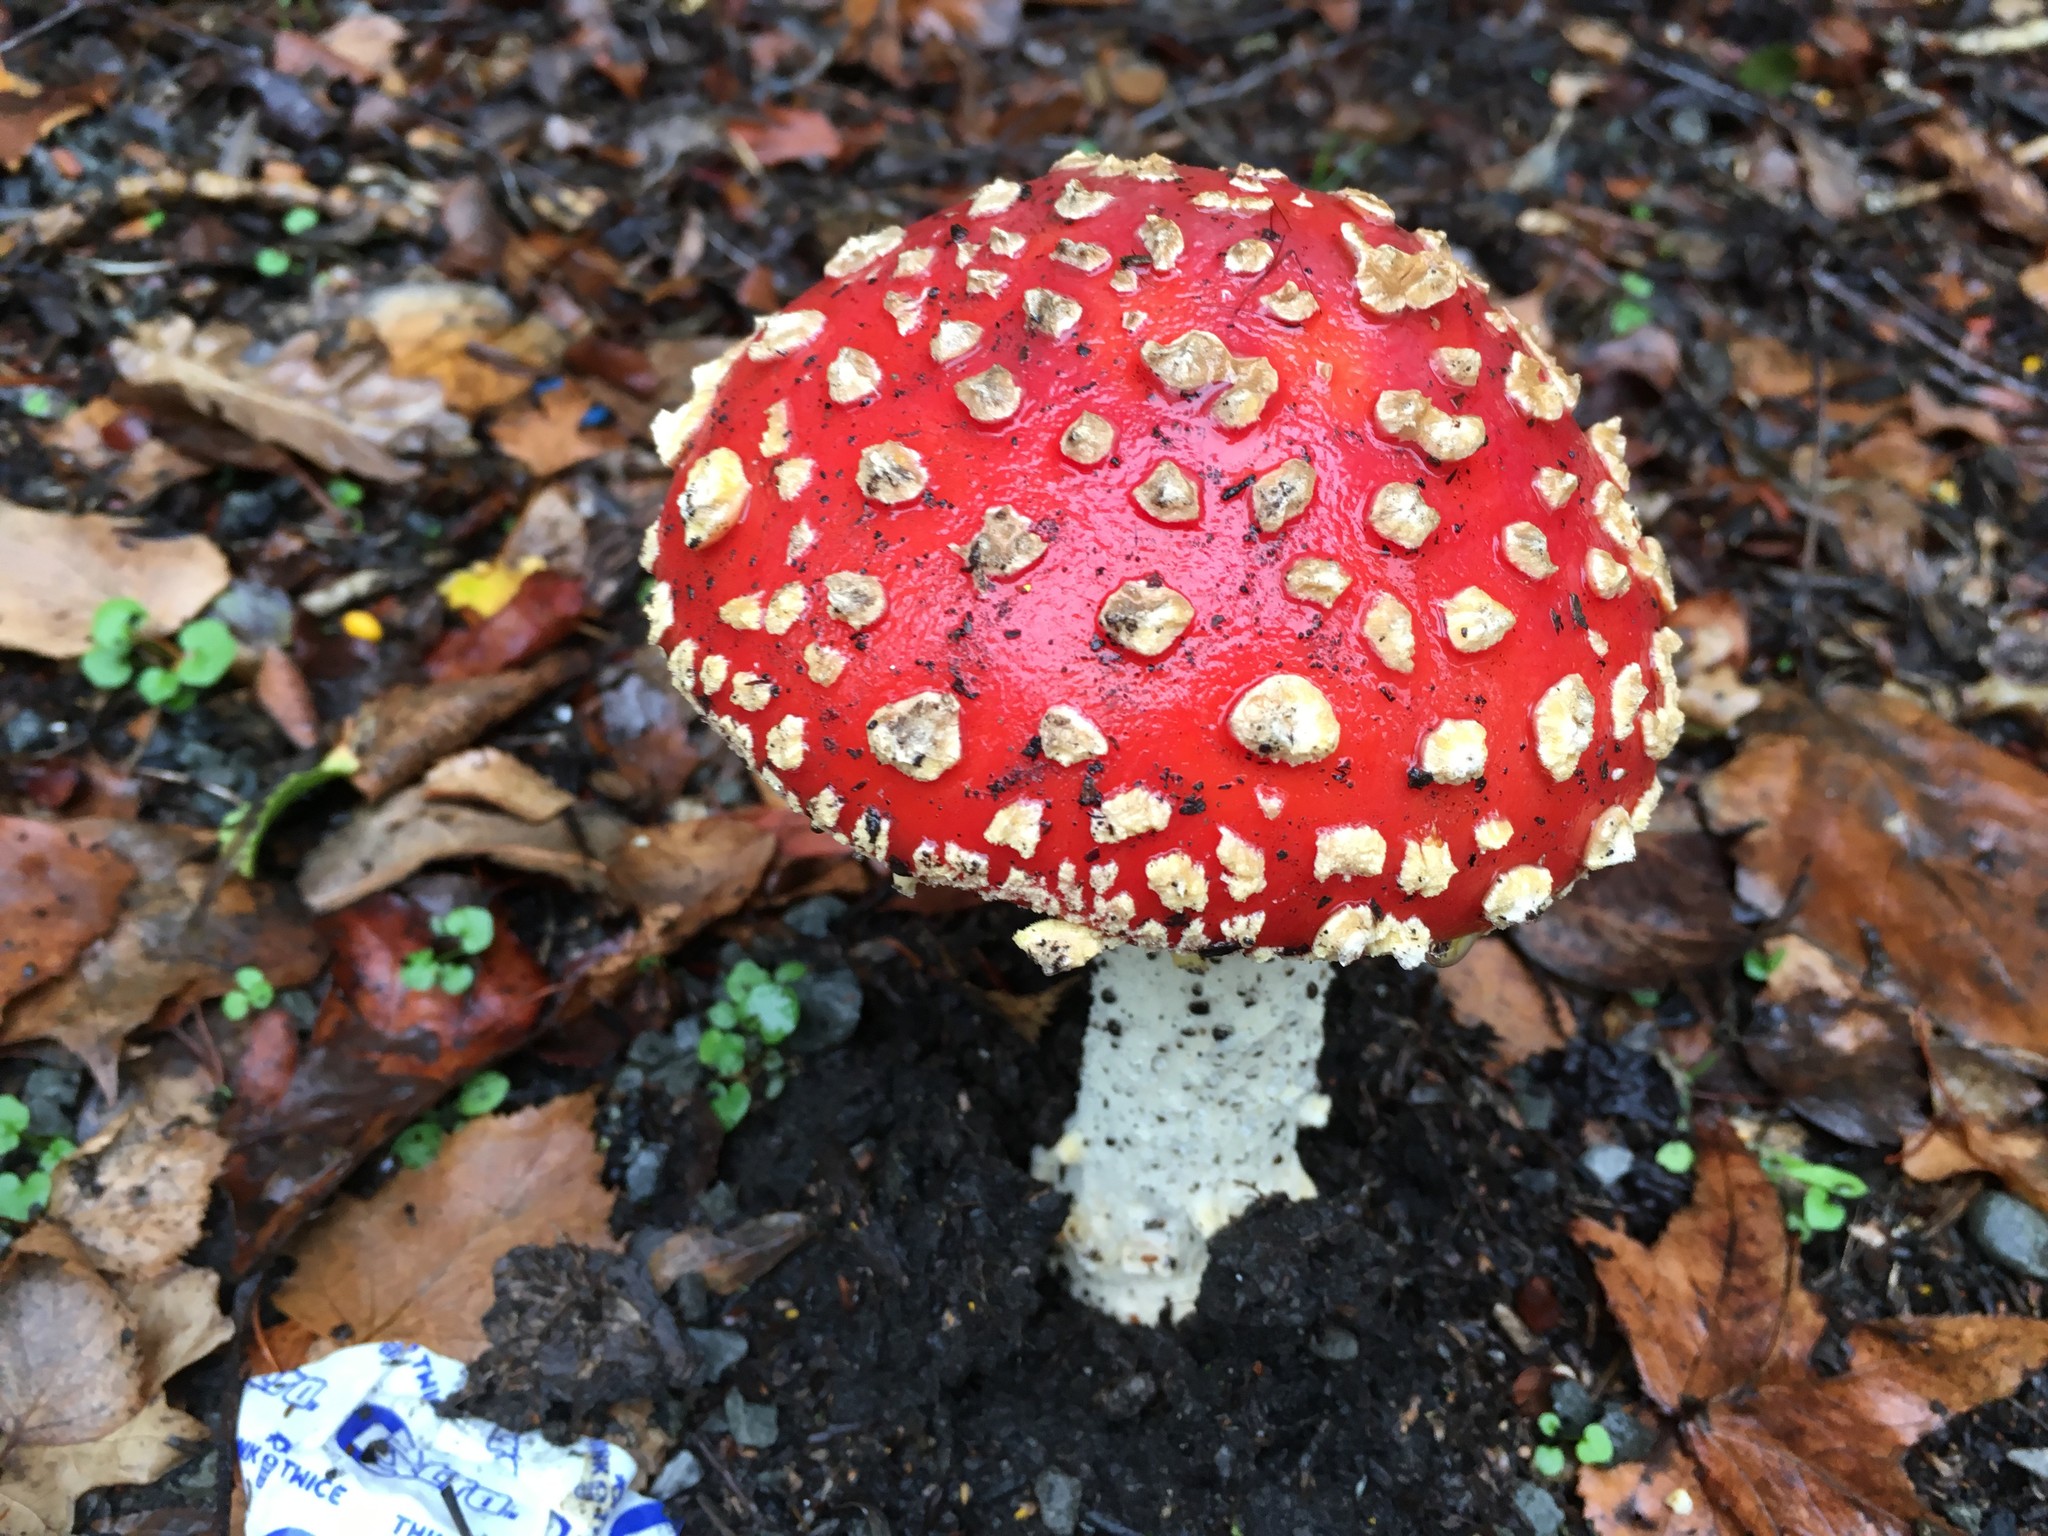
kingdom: Fungi
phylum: Basidiomycota
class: Agaricomycetes
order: Agaricales
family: Amanitaceae
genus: Amanita
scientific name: Amanita muscaria
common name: Fly agaric
